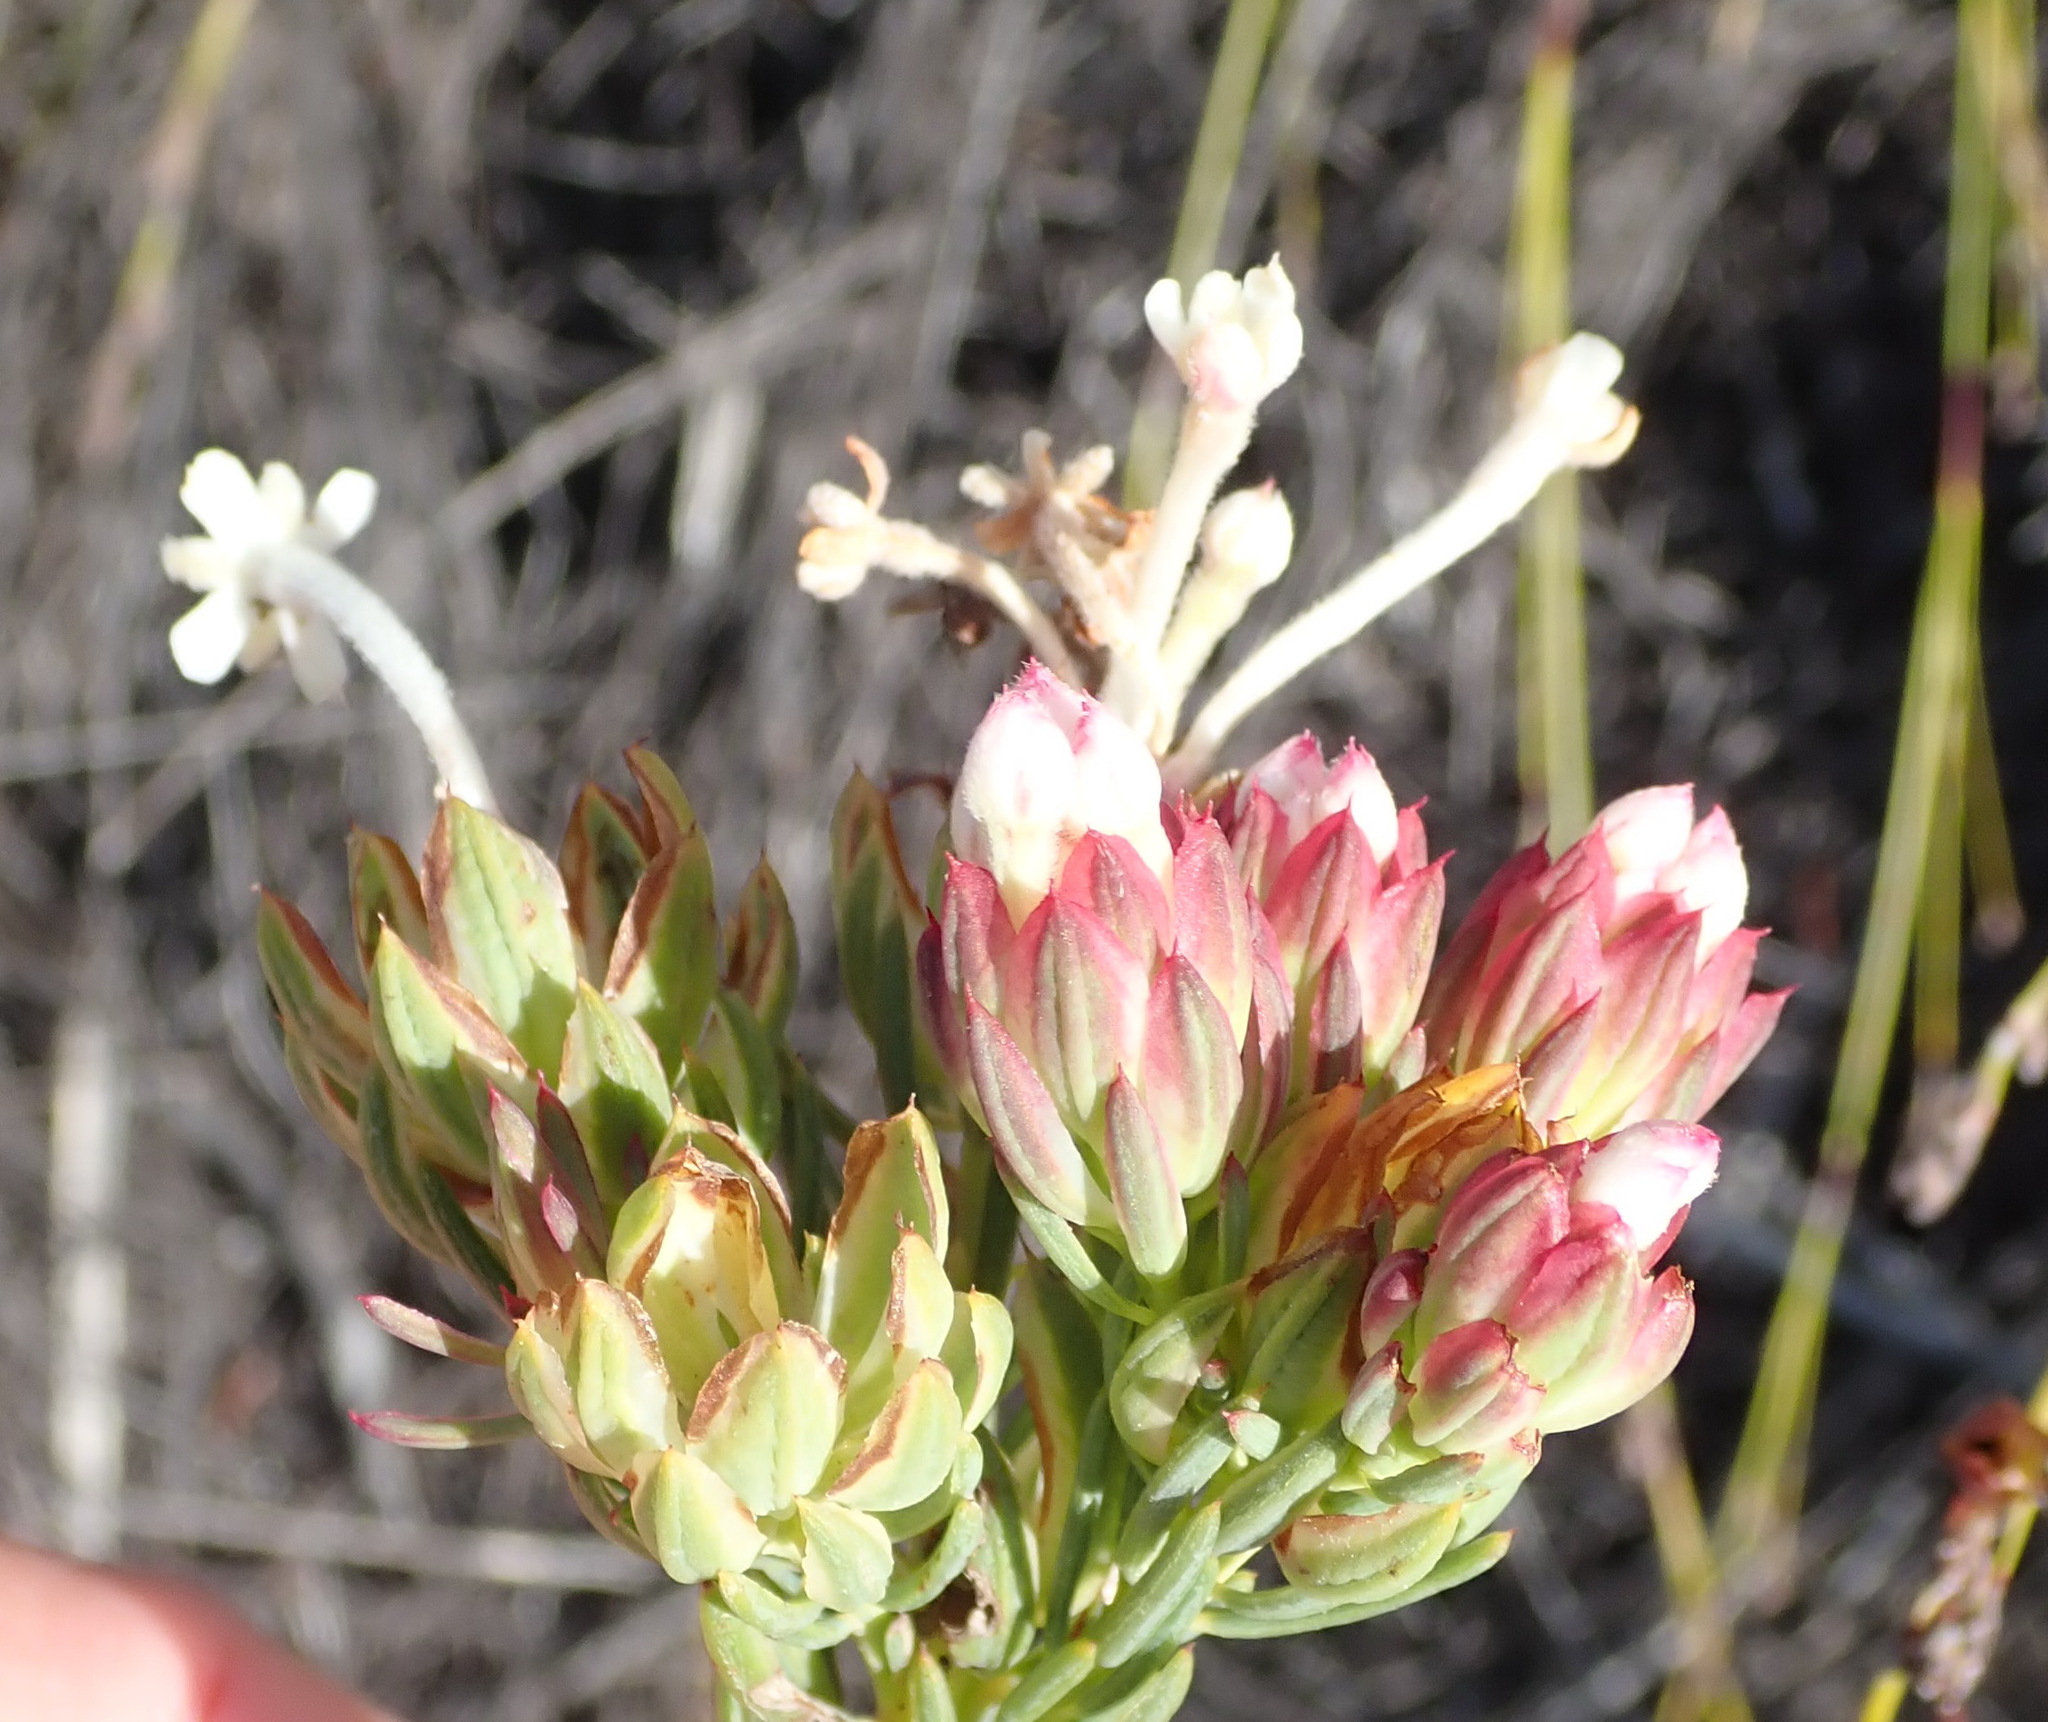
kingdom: Plantae
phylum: Tracheophyta
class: Magnoliopsida
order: Malvales
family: Thymelaeaceae
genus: Gnidia
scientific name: Gnidia pinifolia
